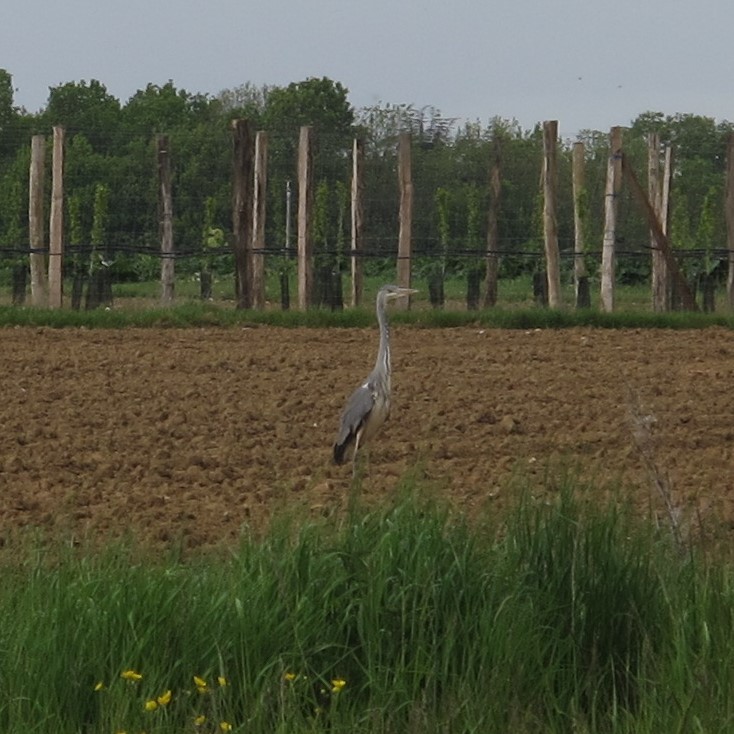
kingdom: Animalia
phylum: Chordata
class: Aves
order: Pelecaniformes
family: Ardeidae
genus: Ardea
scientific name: Ardea cinerea
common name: Grey heron
